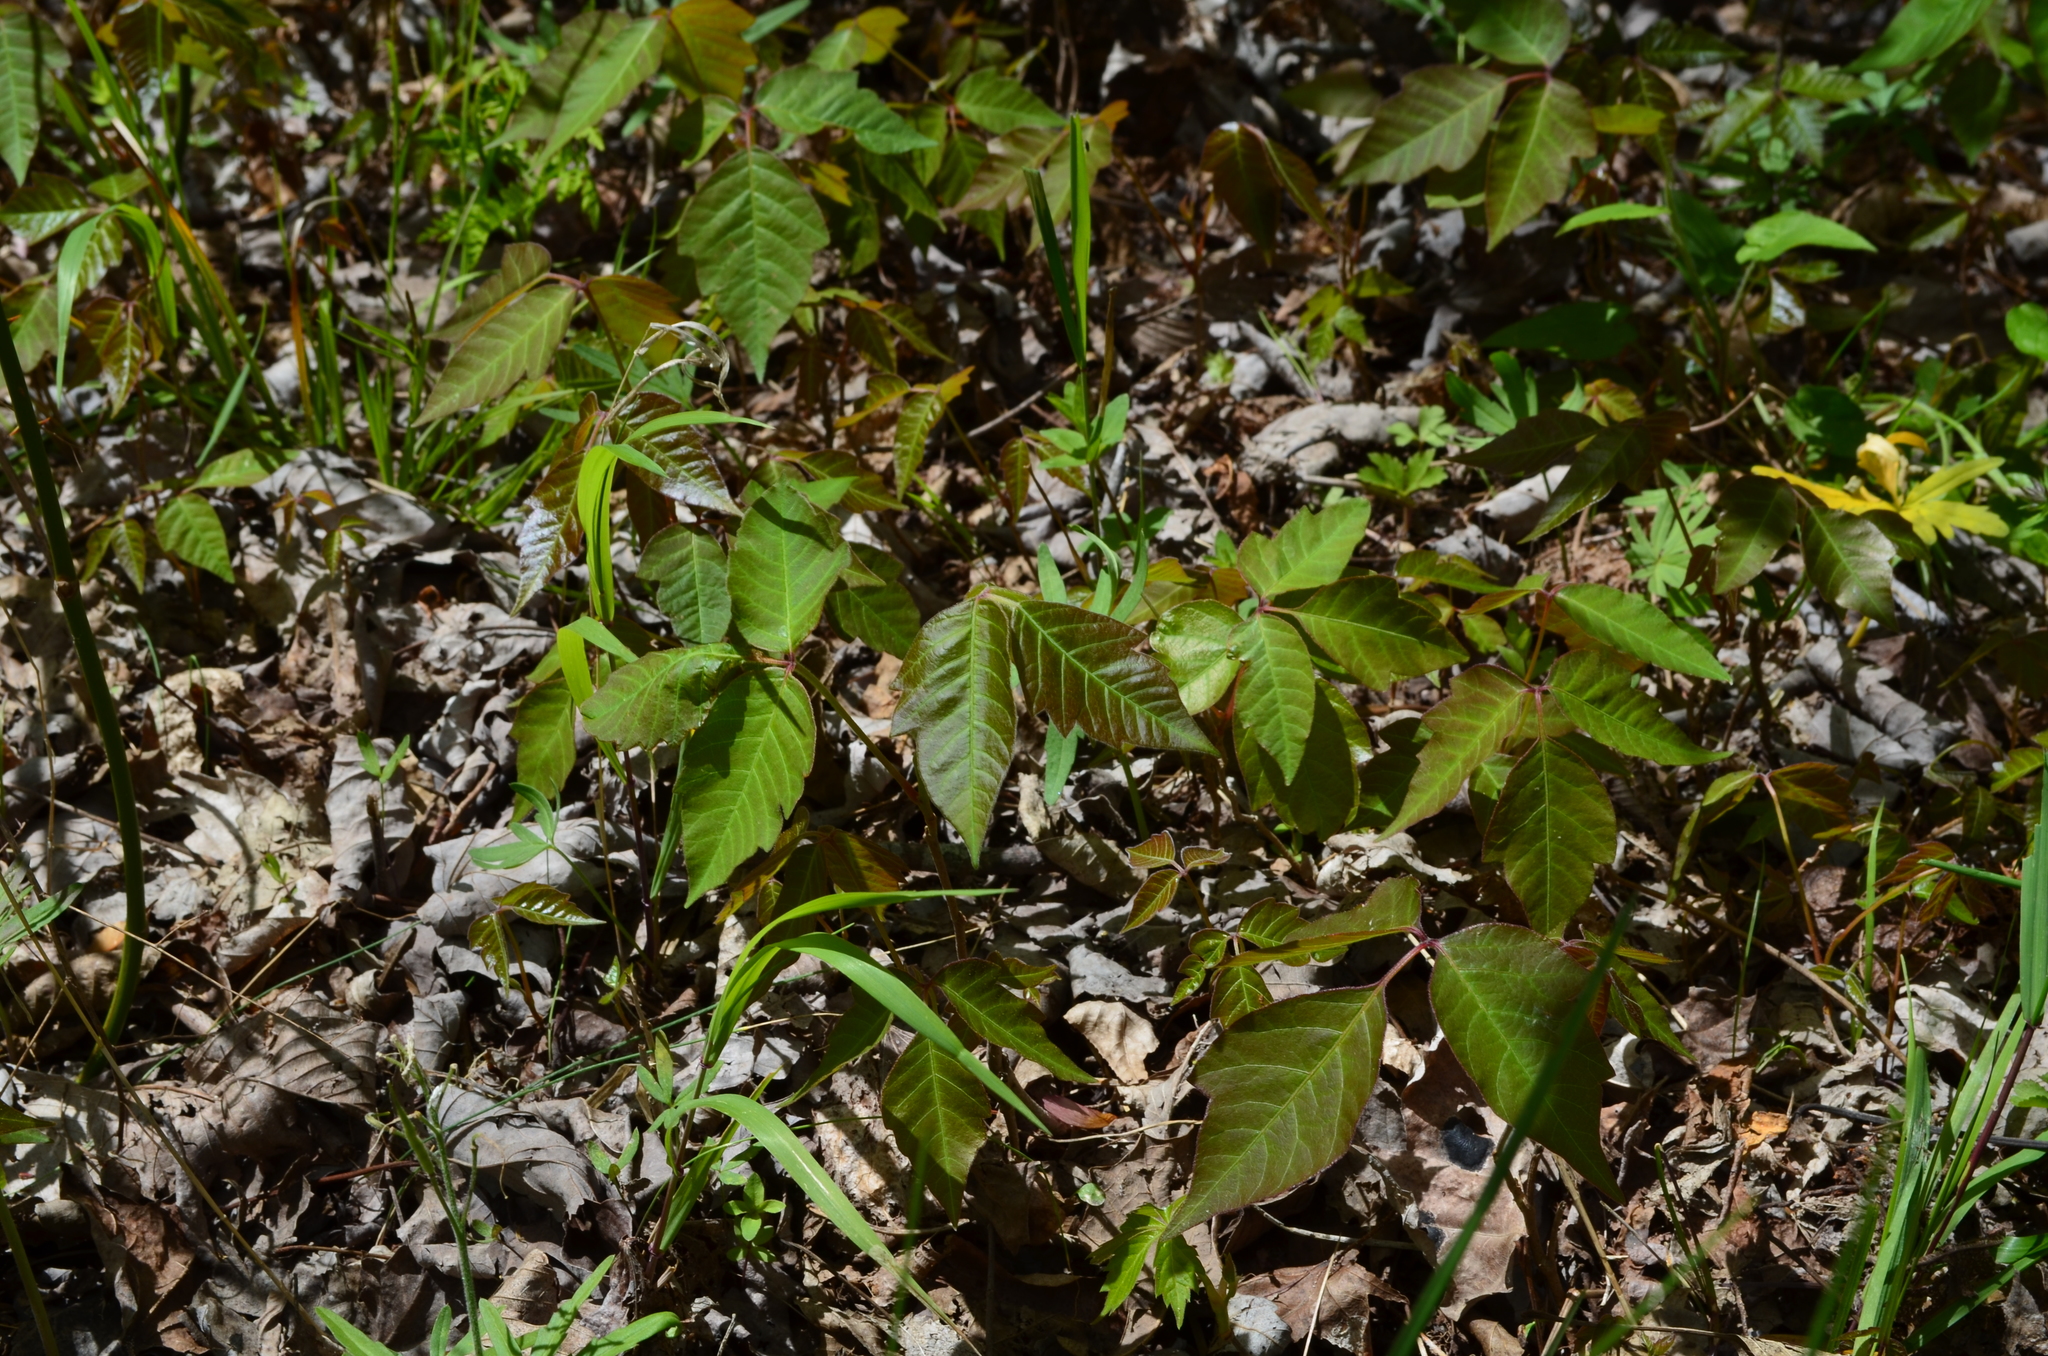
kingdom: Plantae
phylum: Tracheophyta
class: Magnoliopsida
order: Sapindales
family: Anacardiaceae
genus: Toxicodendron
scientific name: Toxicodendron radicans
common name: Poison ivy
